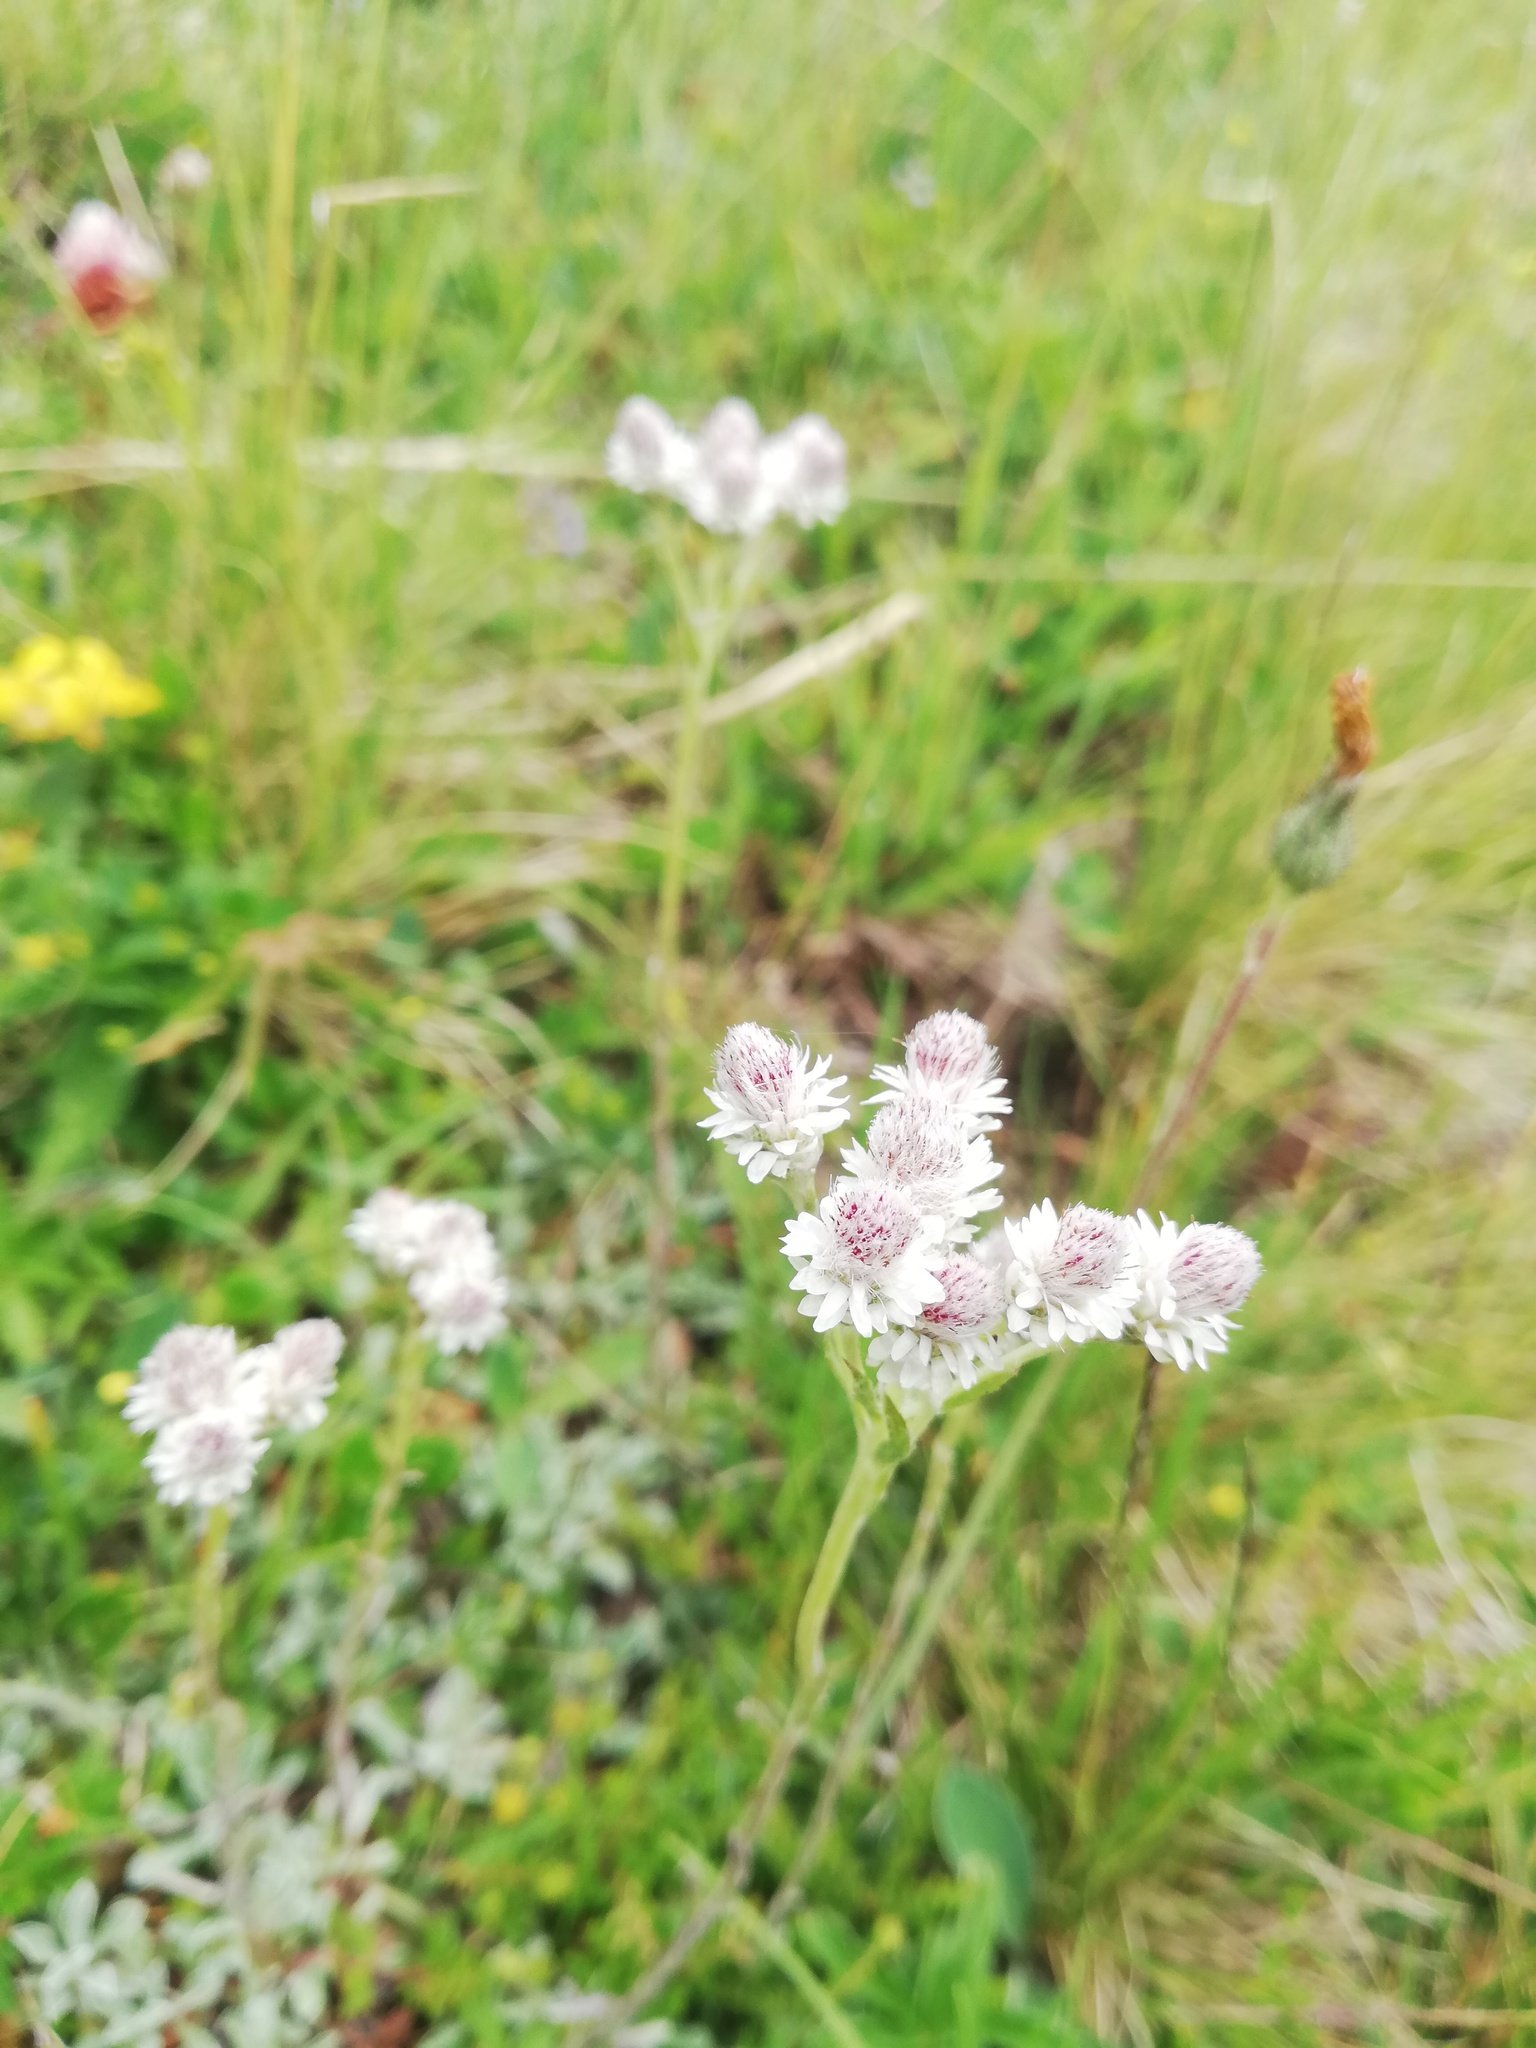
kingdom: Plantae
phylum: Tracheophyta
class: Magnoliopsida
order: Asterales
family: Asteraceae
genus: Antennaria
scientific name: Antennaria dioica
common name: Mountain everlasting
